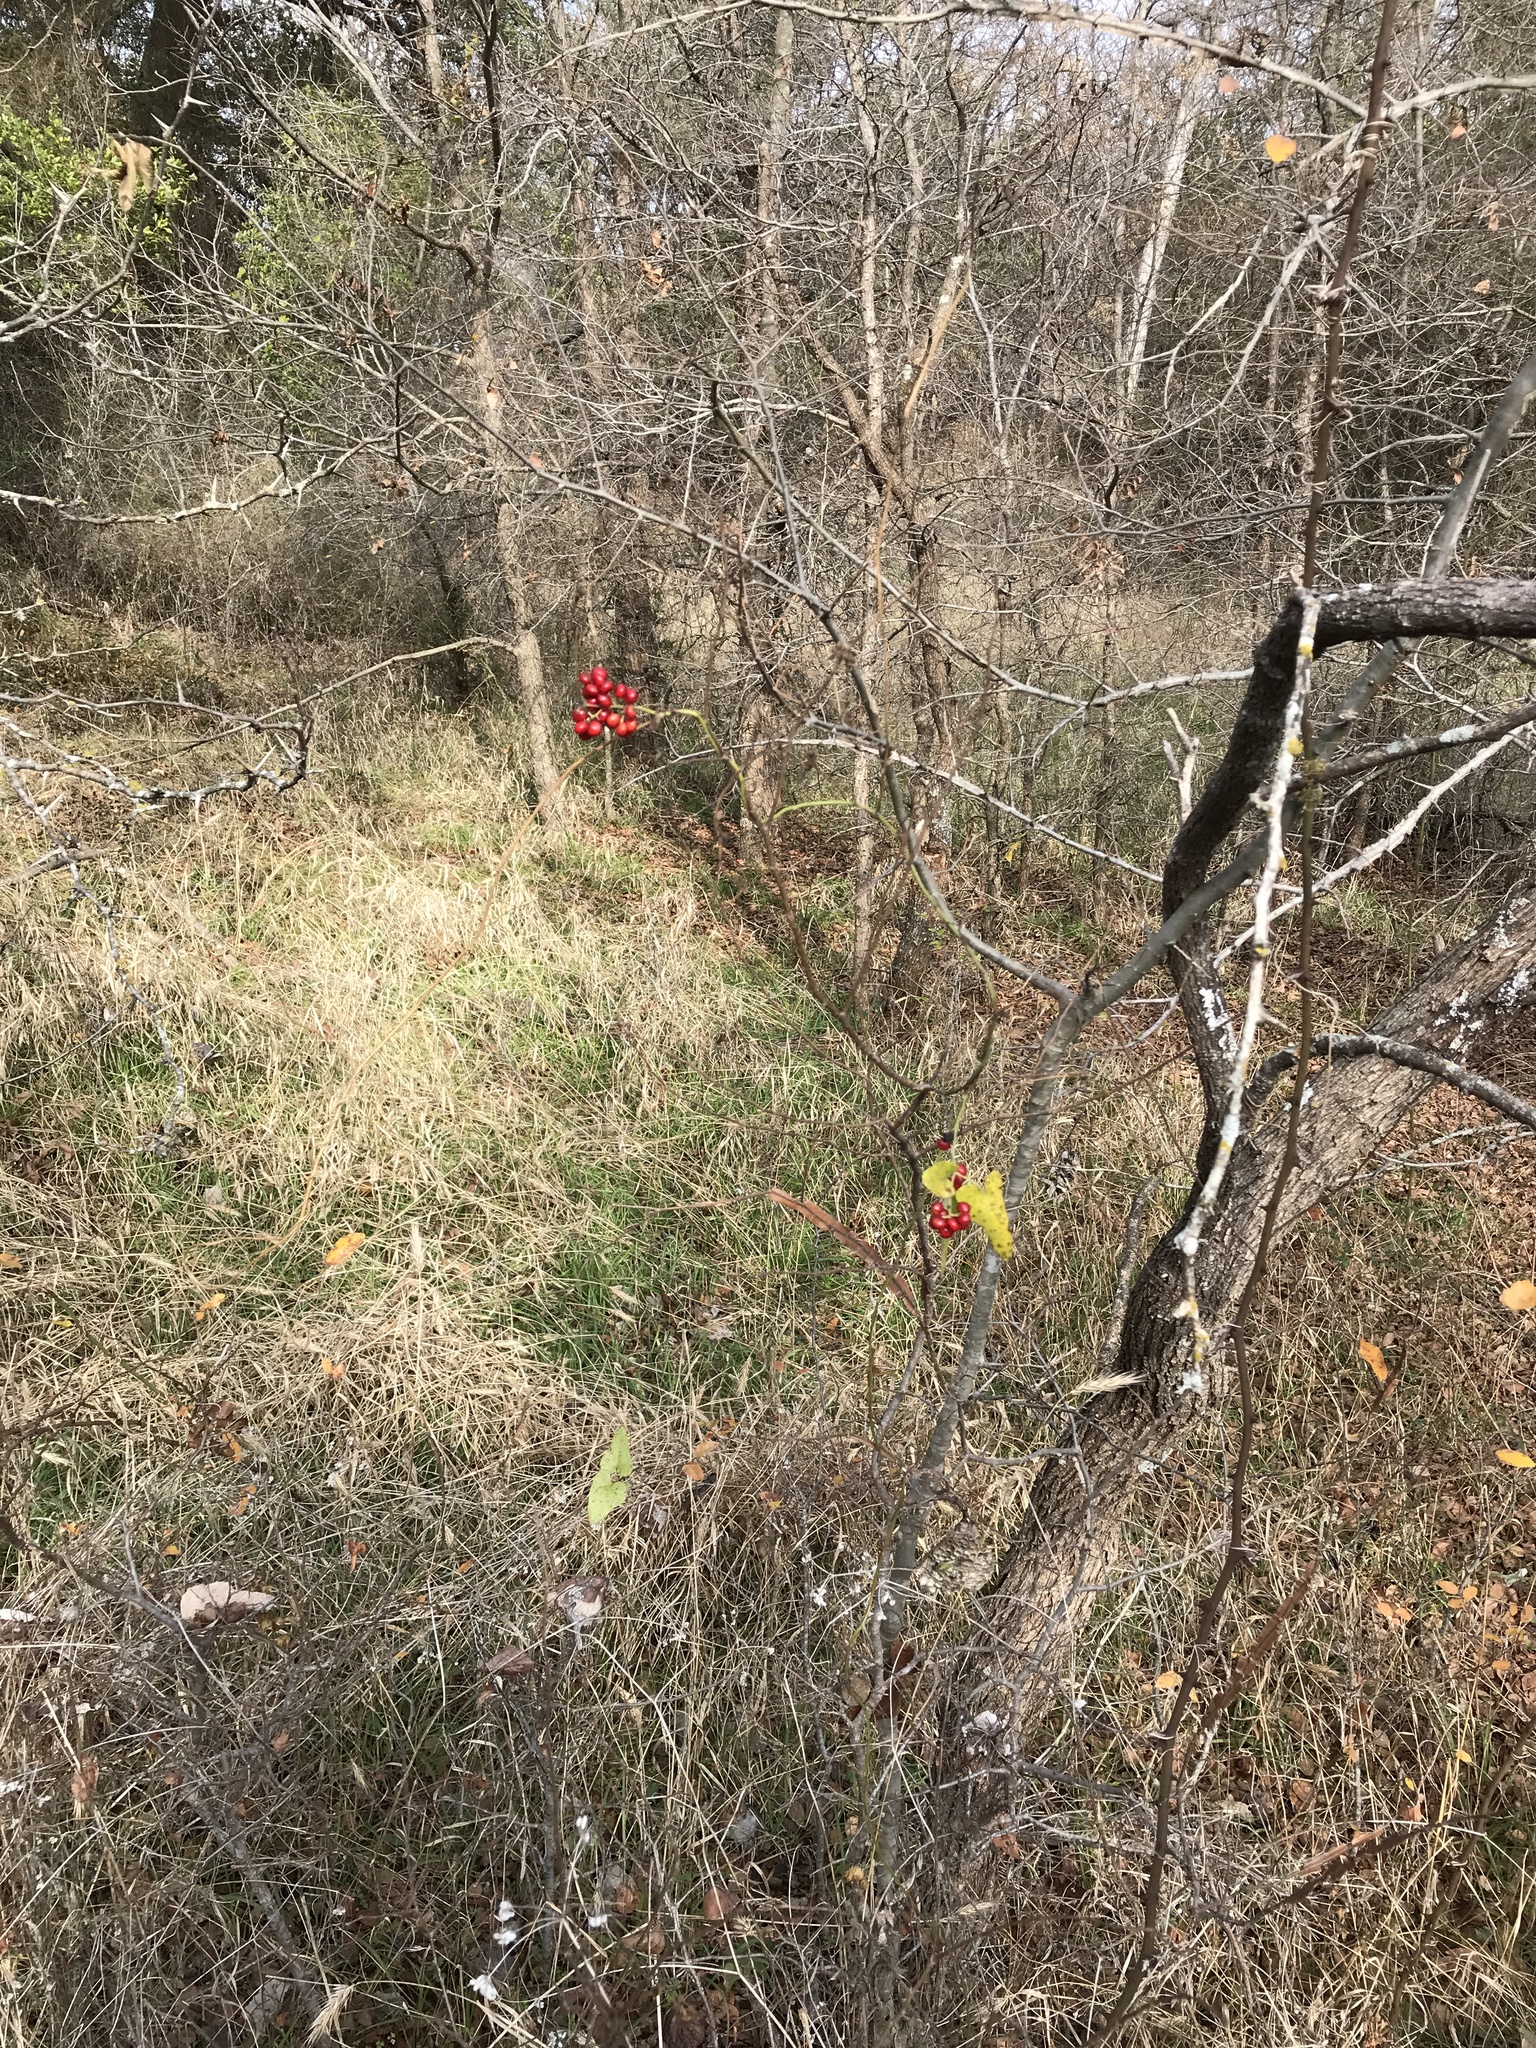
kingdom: Plantae
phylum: Tracheophyta
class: Magnoliopsida
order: Ranunculales
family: Menispermaceae
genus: Cocculus
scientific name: Cocculus carolinus
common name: Carolina moonseed
